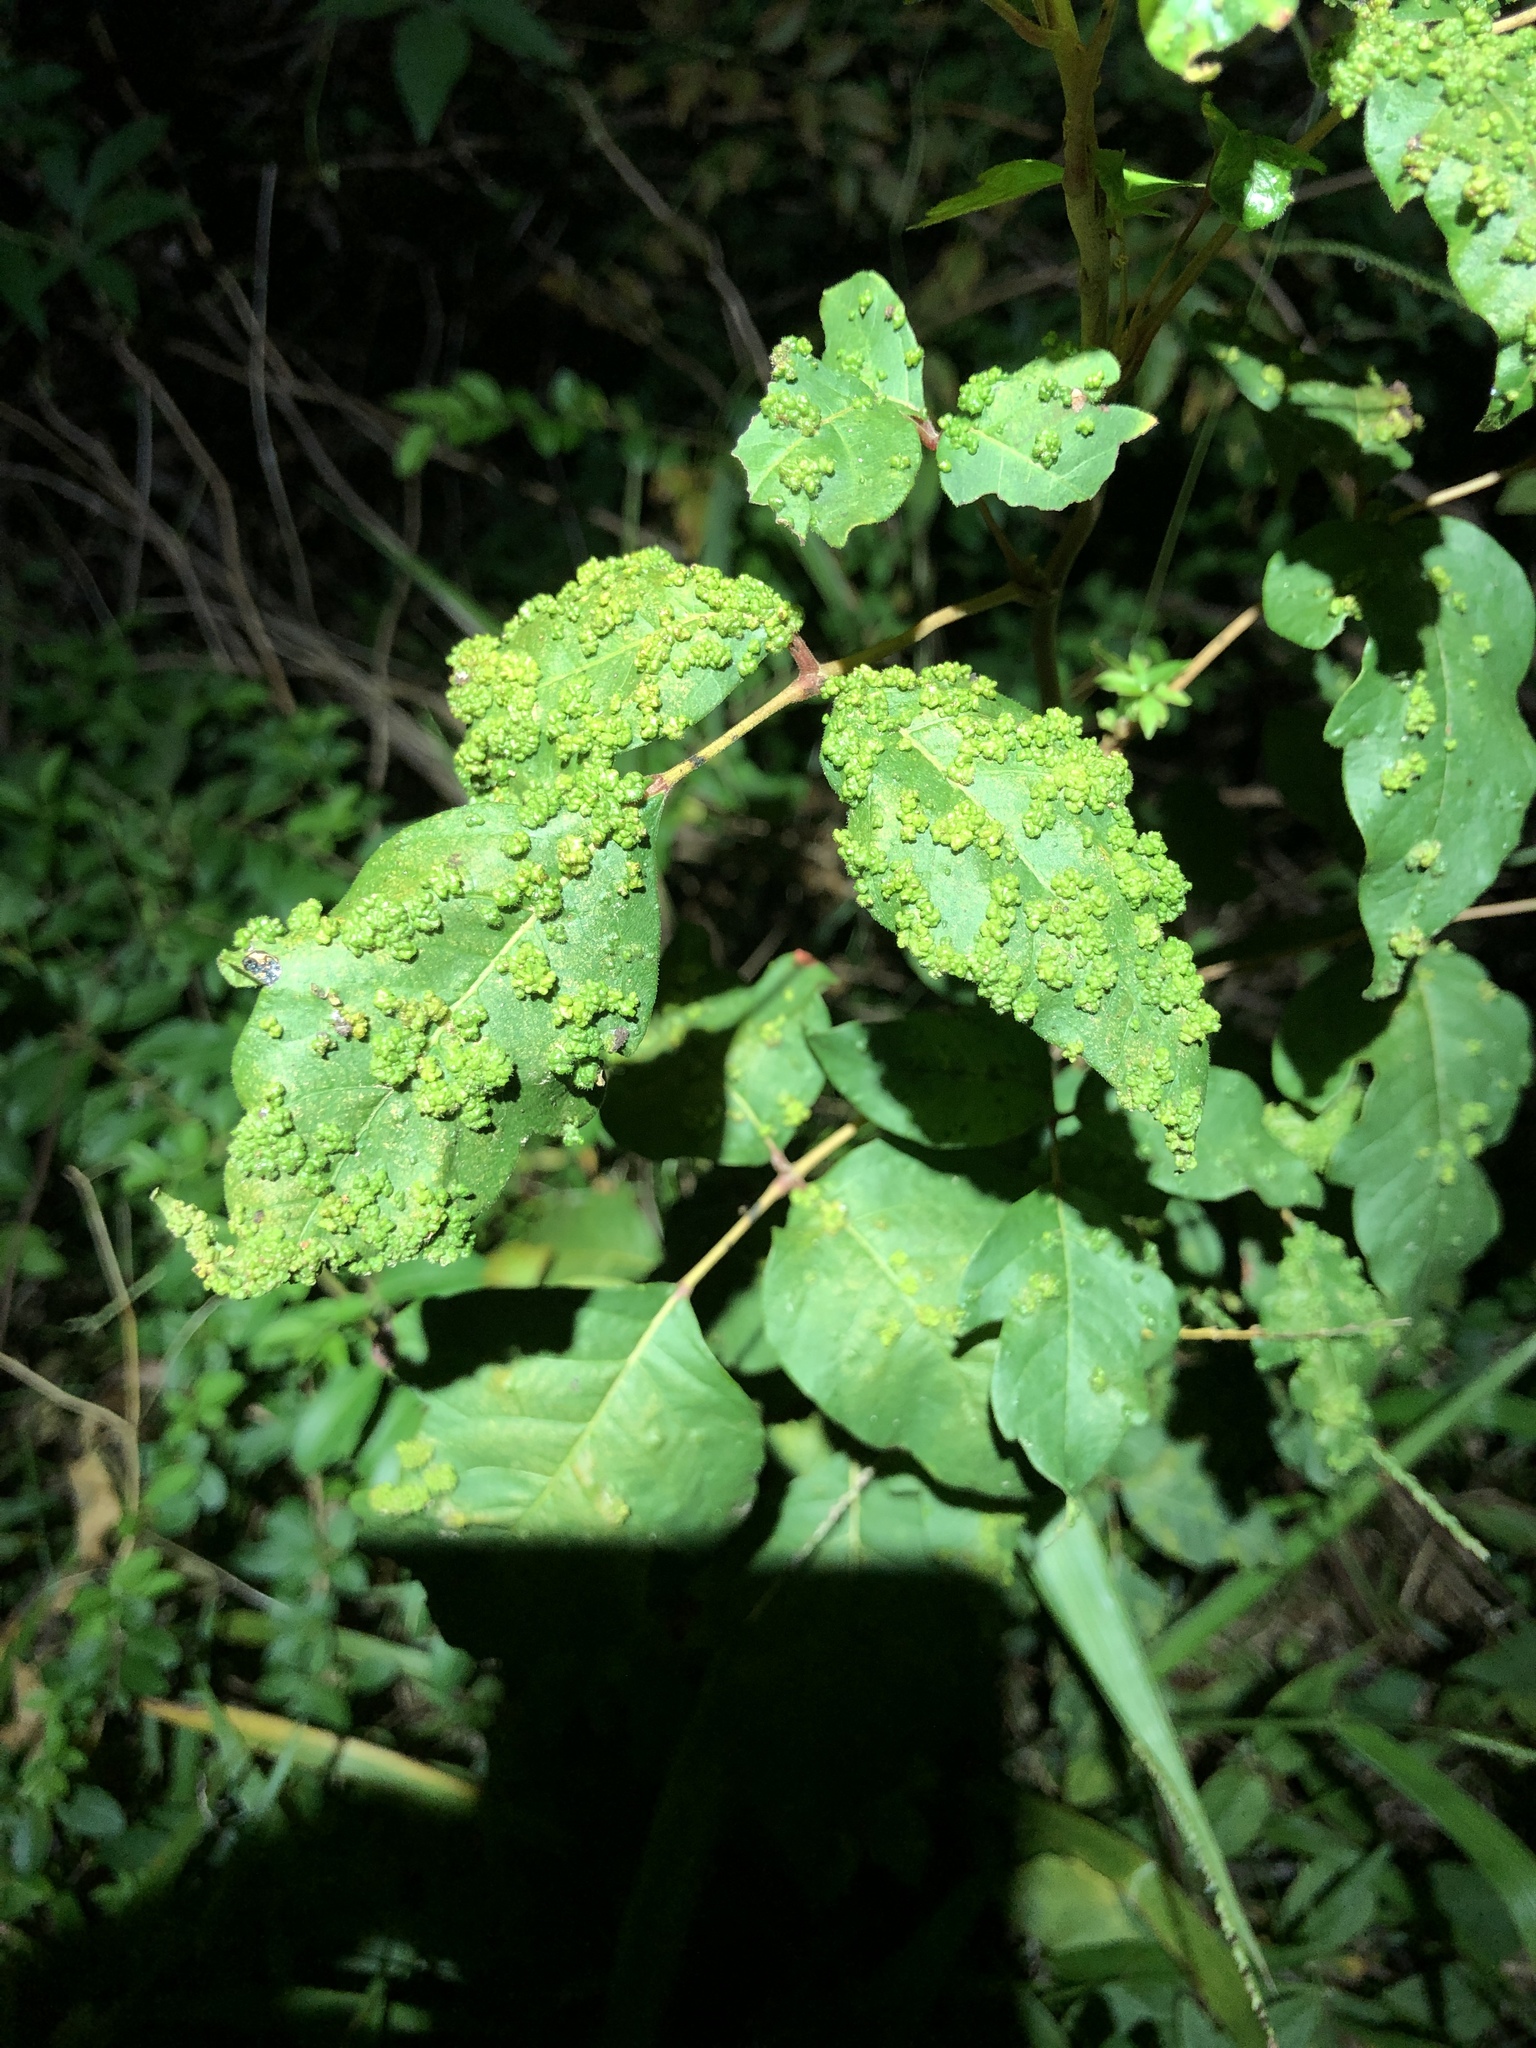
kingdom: Animalia
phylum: Arthropoda
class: Arachnida
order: Trombidiformes
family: Eriophyidae
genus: Aculops
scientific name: Aculops
